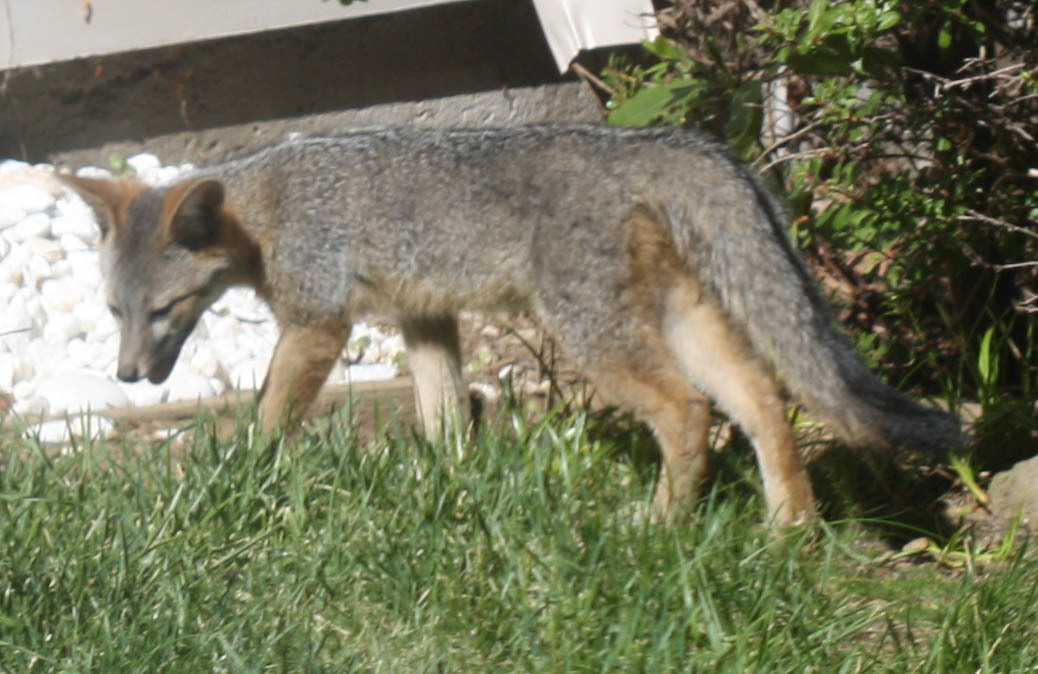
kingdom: Animalia
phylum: Chordata
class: Mammalia
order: Carnivora
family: Canidae
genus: Urocyon
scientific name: Urocyon cinereoargenteus
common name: Gray fox
